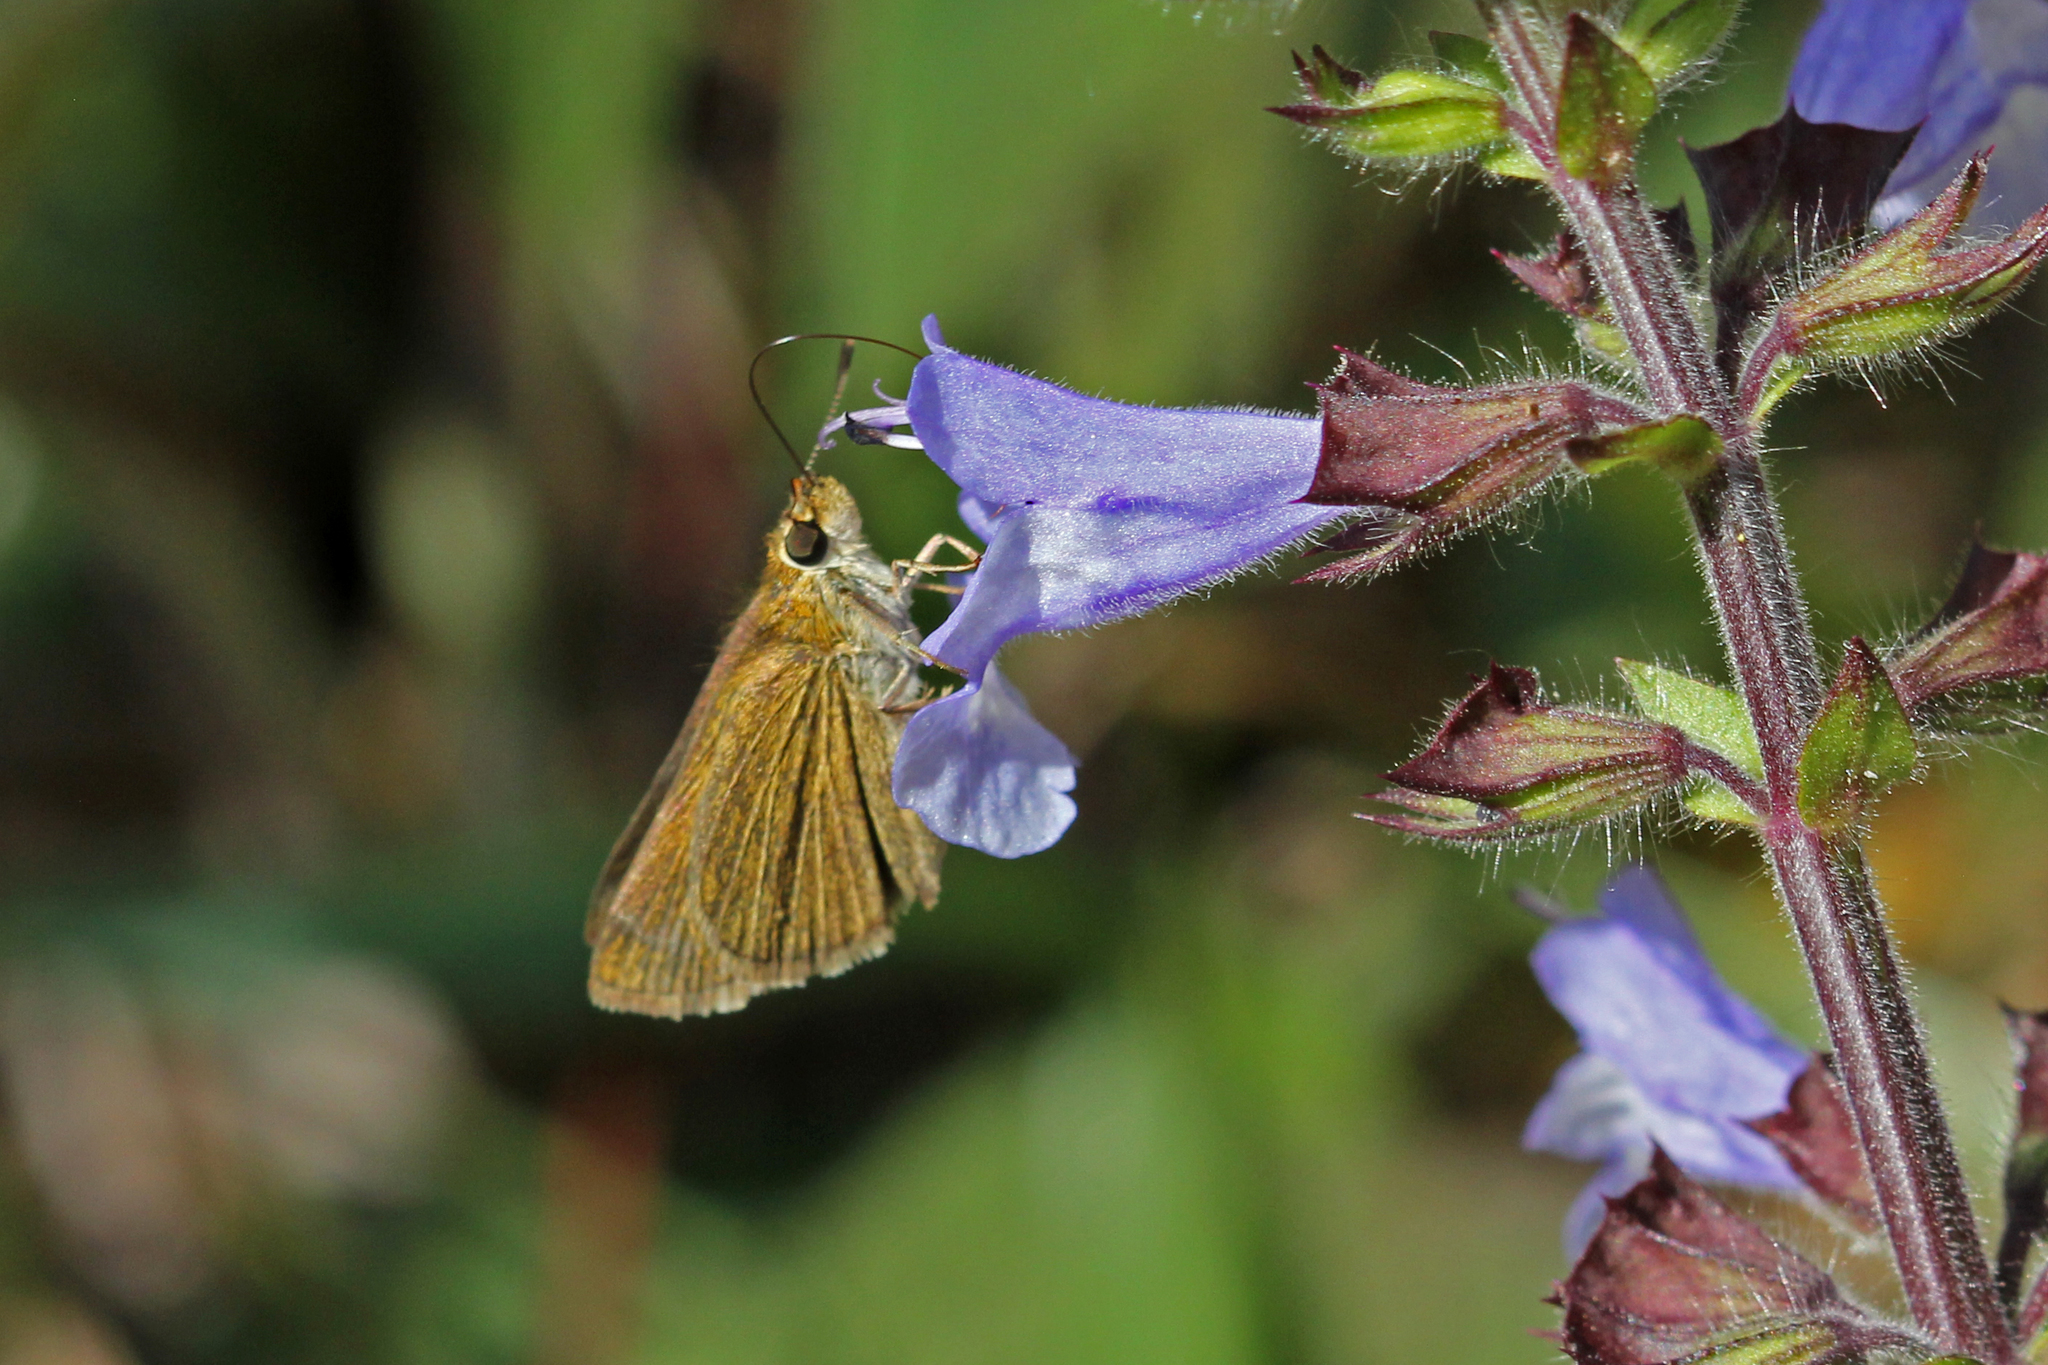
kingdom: Animalia
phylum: Arthropoda
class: Insecta
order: Lepidoptera
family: Hesperiidae
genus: Nastra
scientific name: Nastra lherminier
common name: Swarthy skipper
